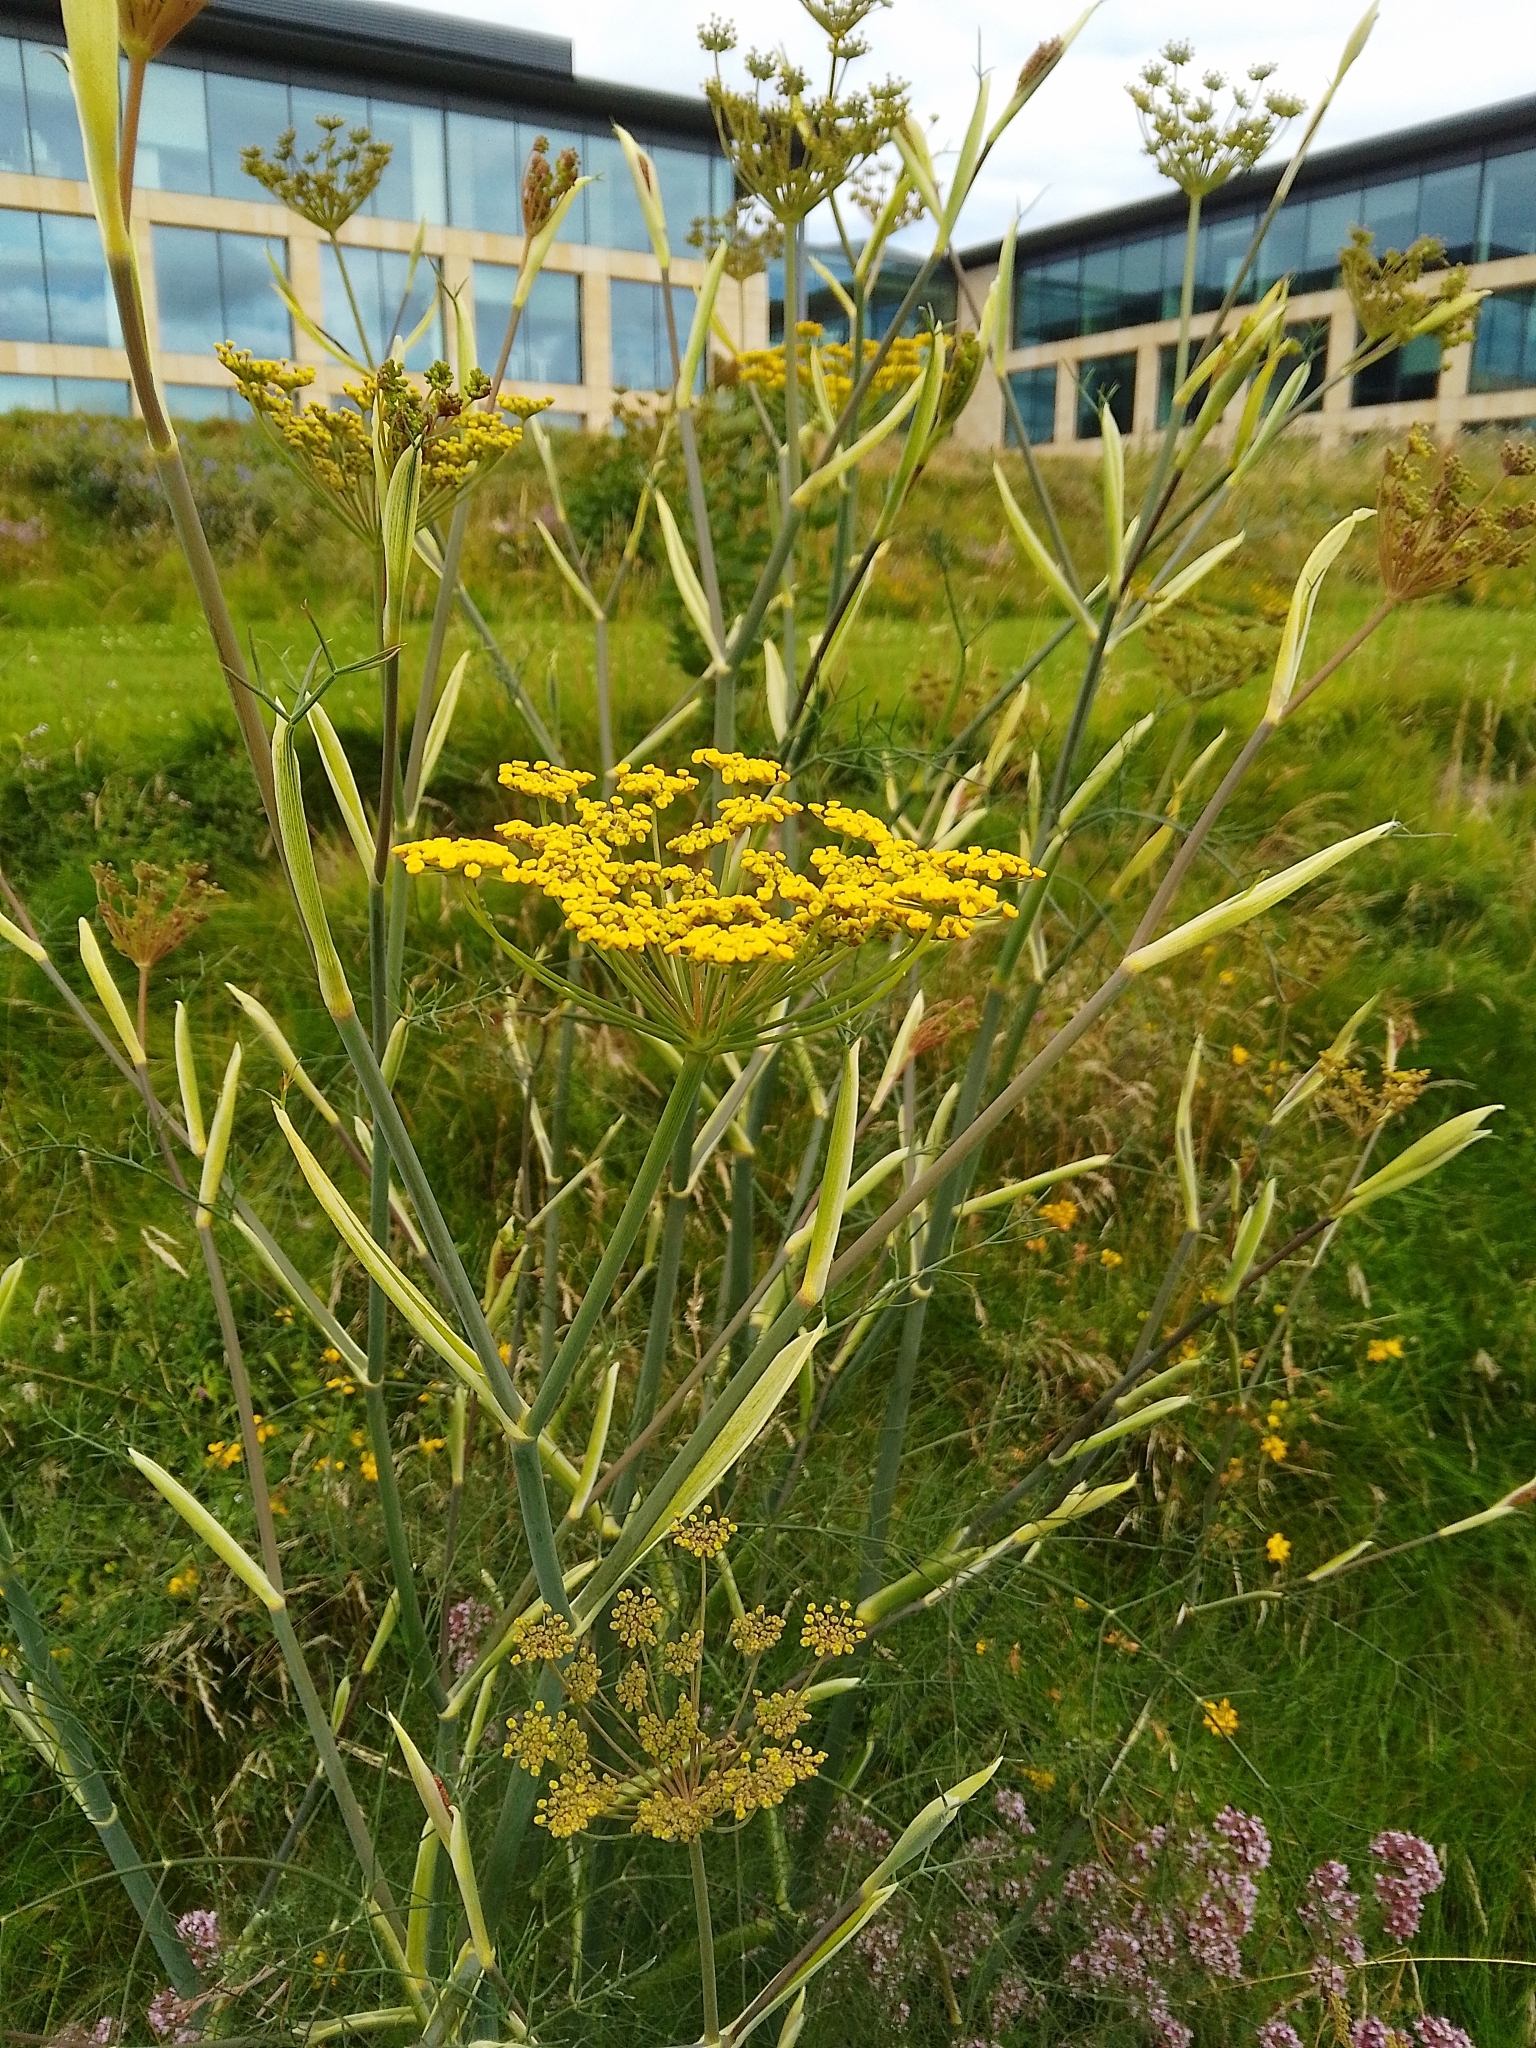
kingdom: Plantae
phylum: Tracheophyta
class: Magnoliopsida
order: Apiales
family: Apiaceae
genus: Foeniculum
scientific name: Foeniculum vulgare
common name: Fennel
